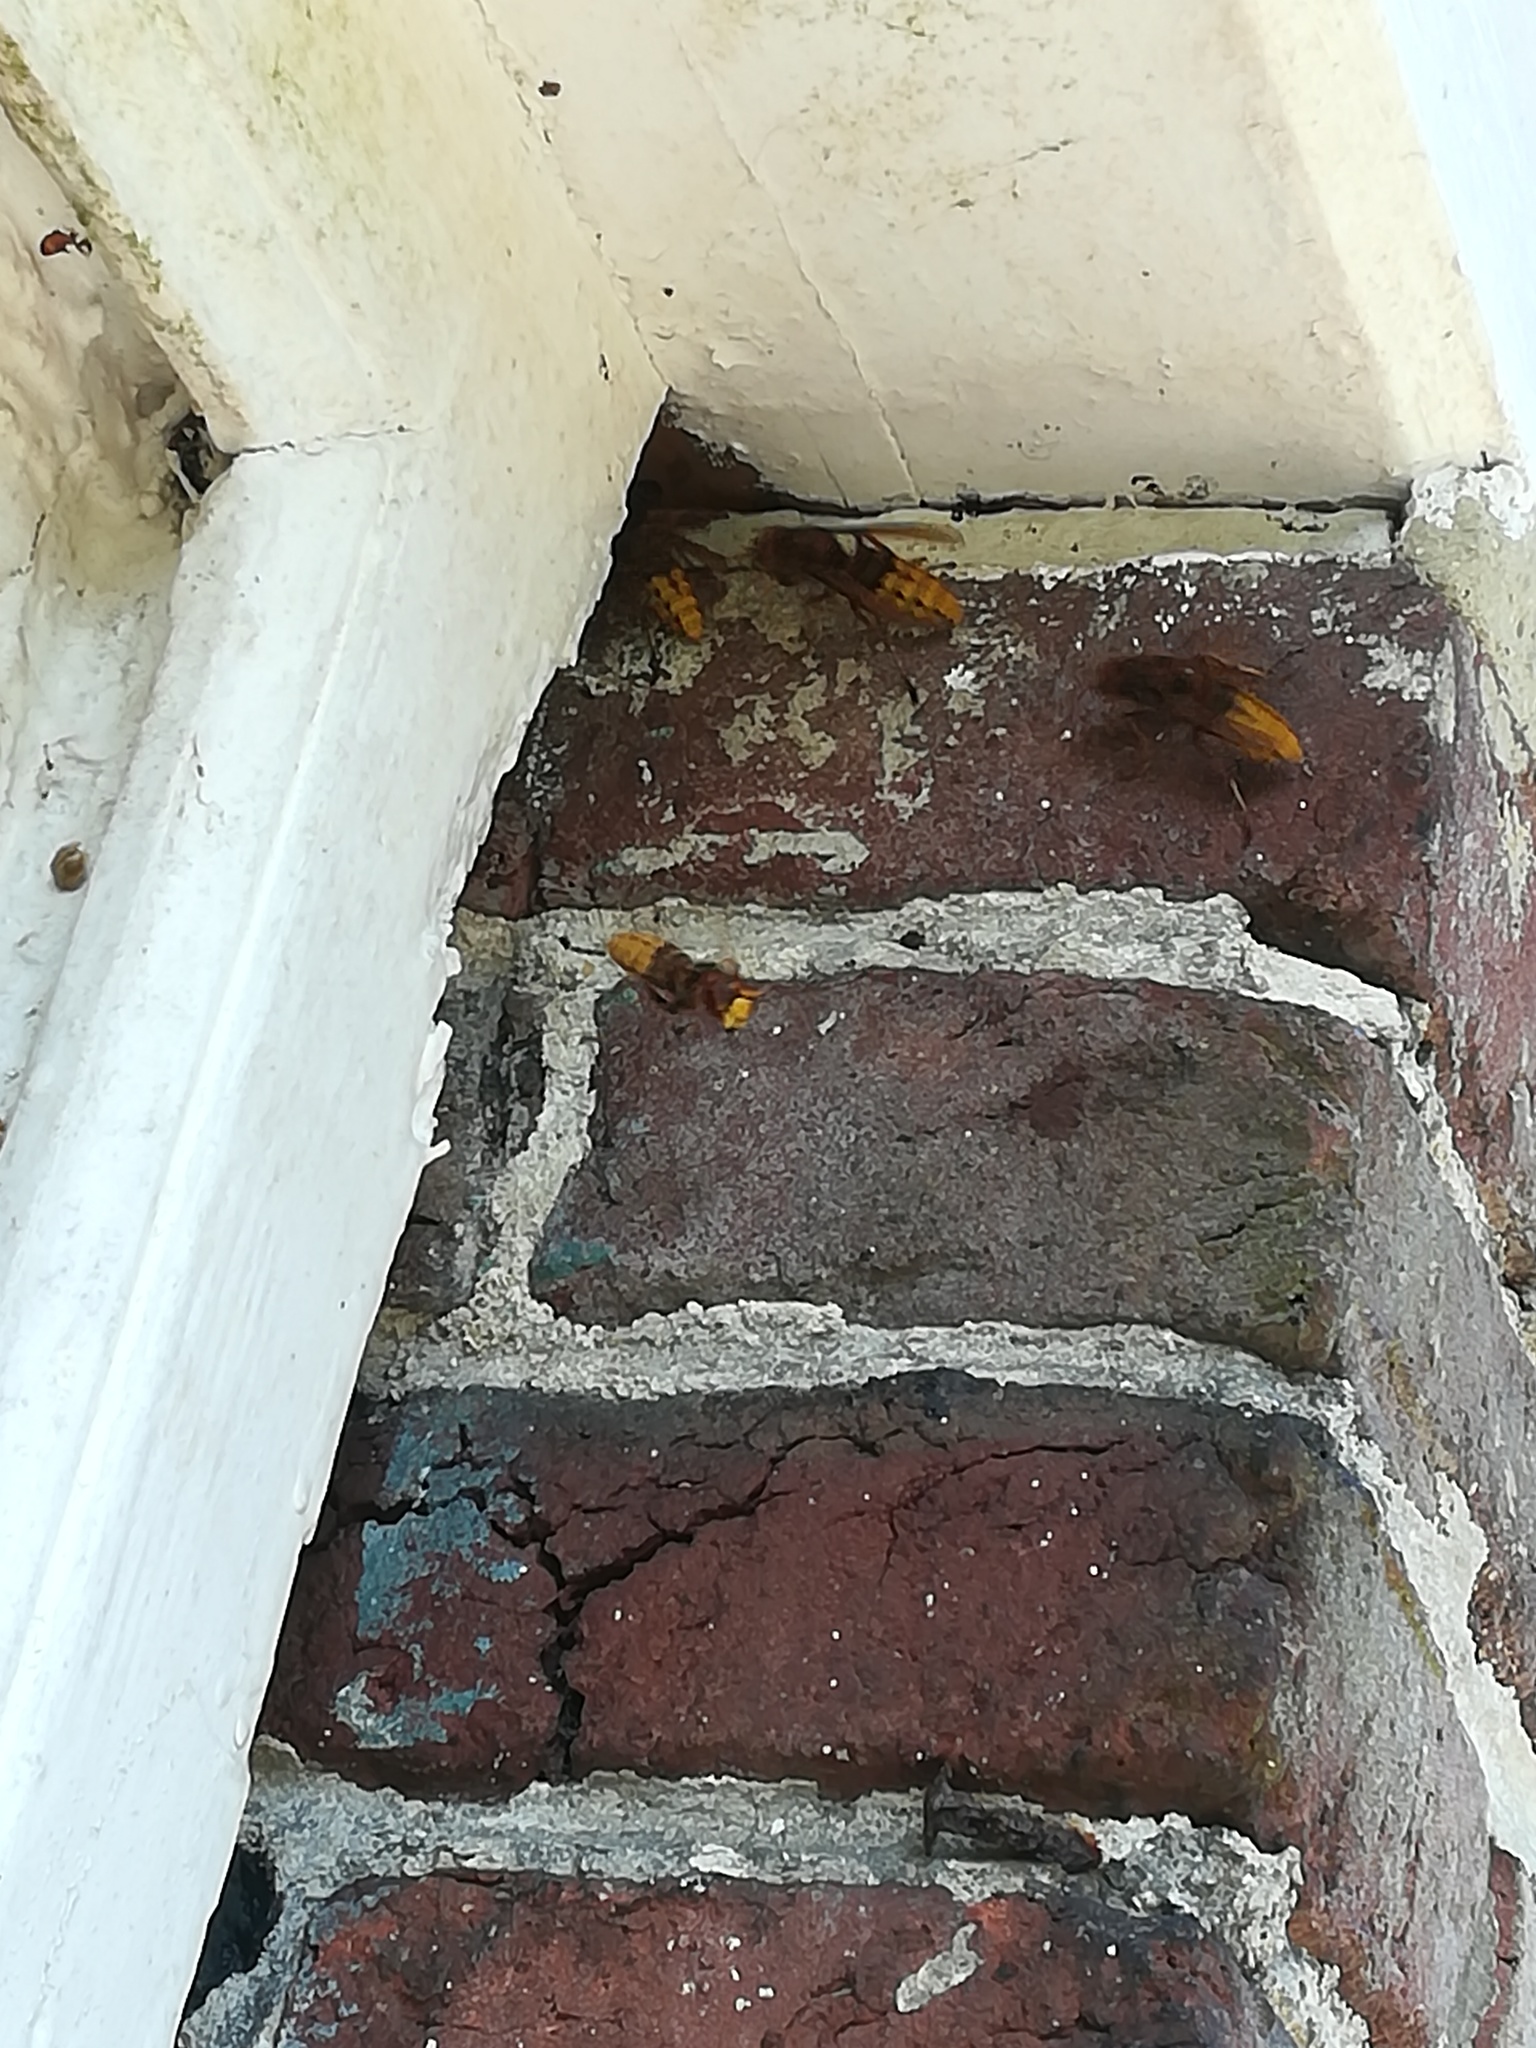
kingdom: Animalia
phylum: Arthropoda
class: Insecta
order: Hymenoptera
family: Vespidae
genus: Vespa
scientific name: Vespa crabro
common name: Hornet
